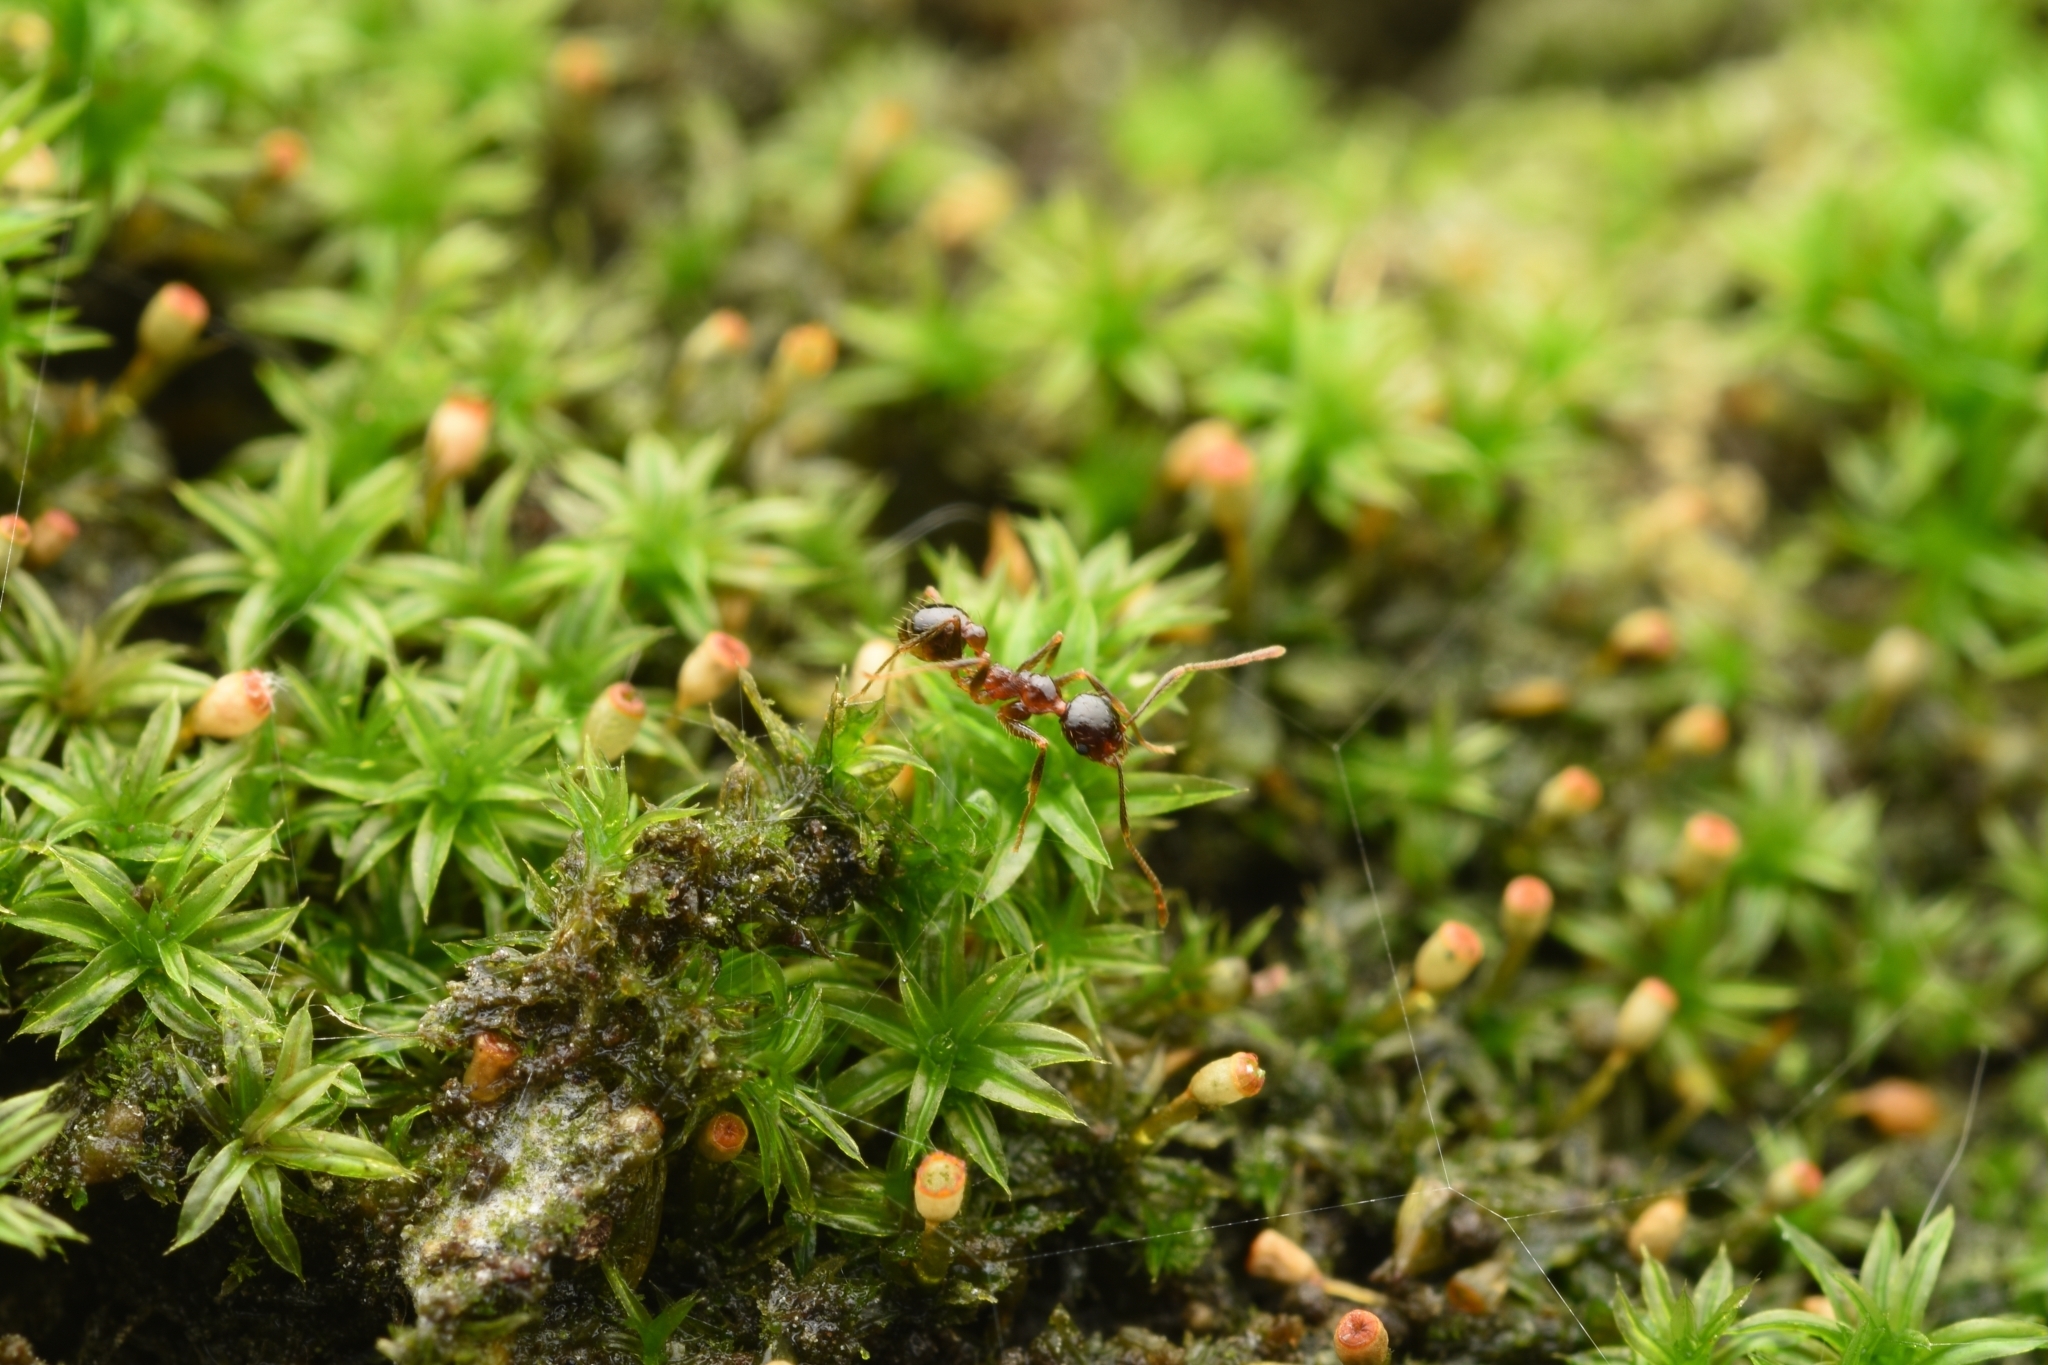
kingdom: Animalia
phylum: Arthropoda
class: Insecta
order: Hymenoptera
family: Formicidae
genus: Pheidole
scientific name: Pheidole noda
